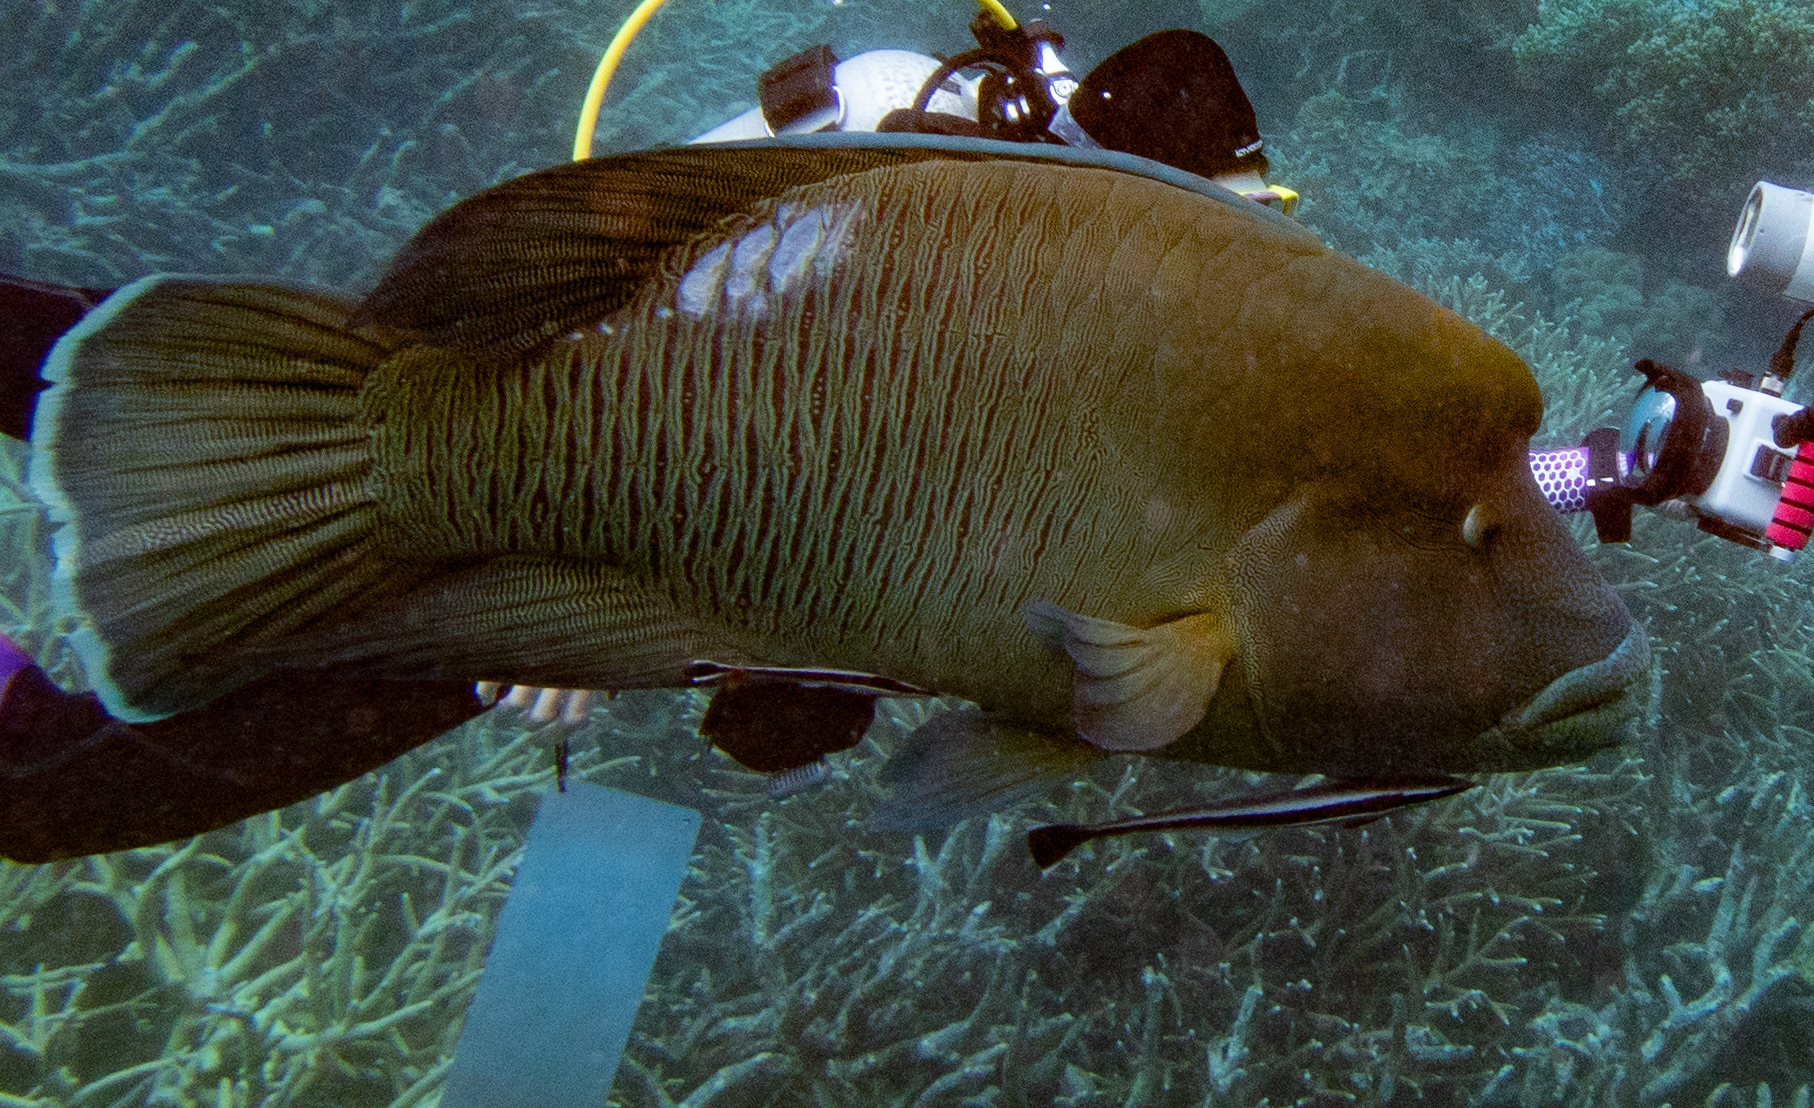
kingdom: Animalia
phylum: Chordata
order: Perciformes
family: Labridae
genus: Cheilinus
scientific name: Cheilinus undulatus
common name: Humphead wrasse
